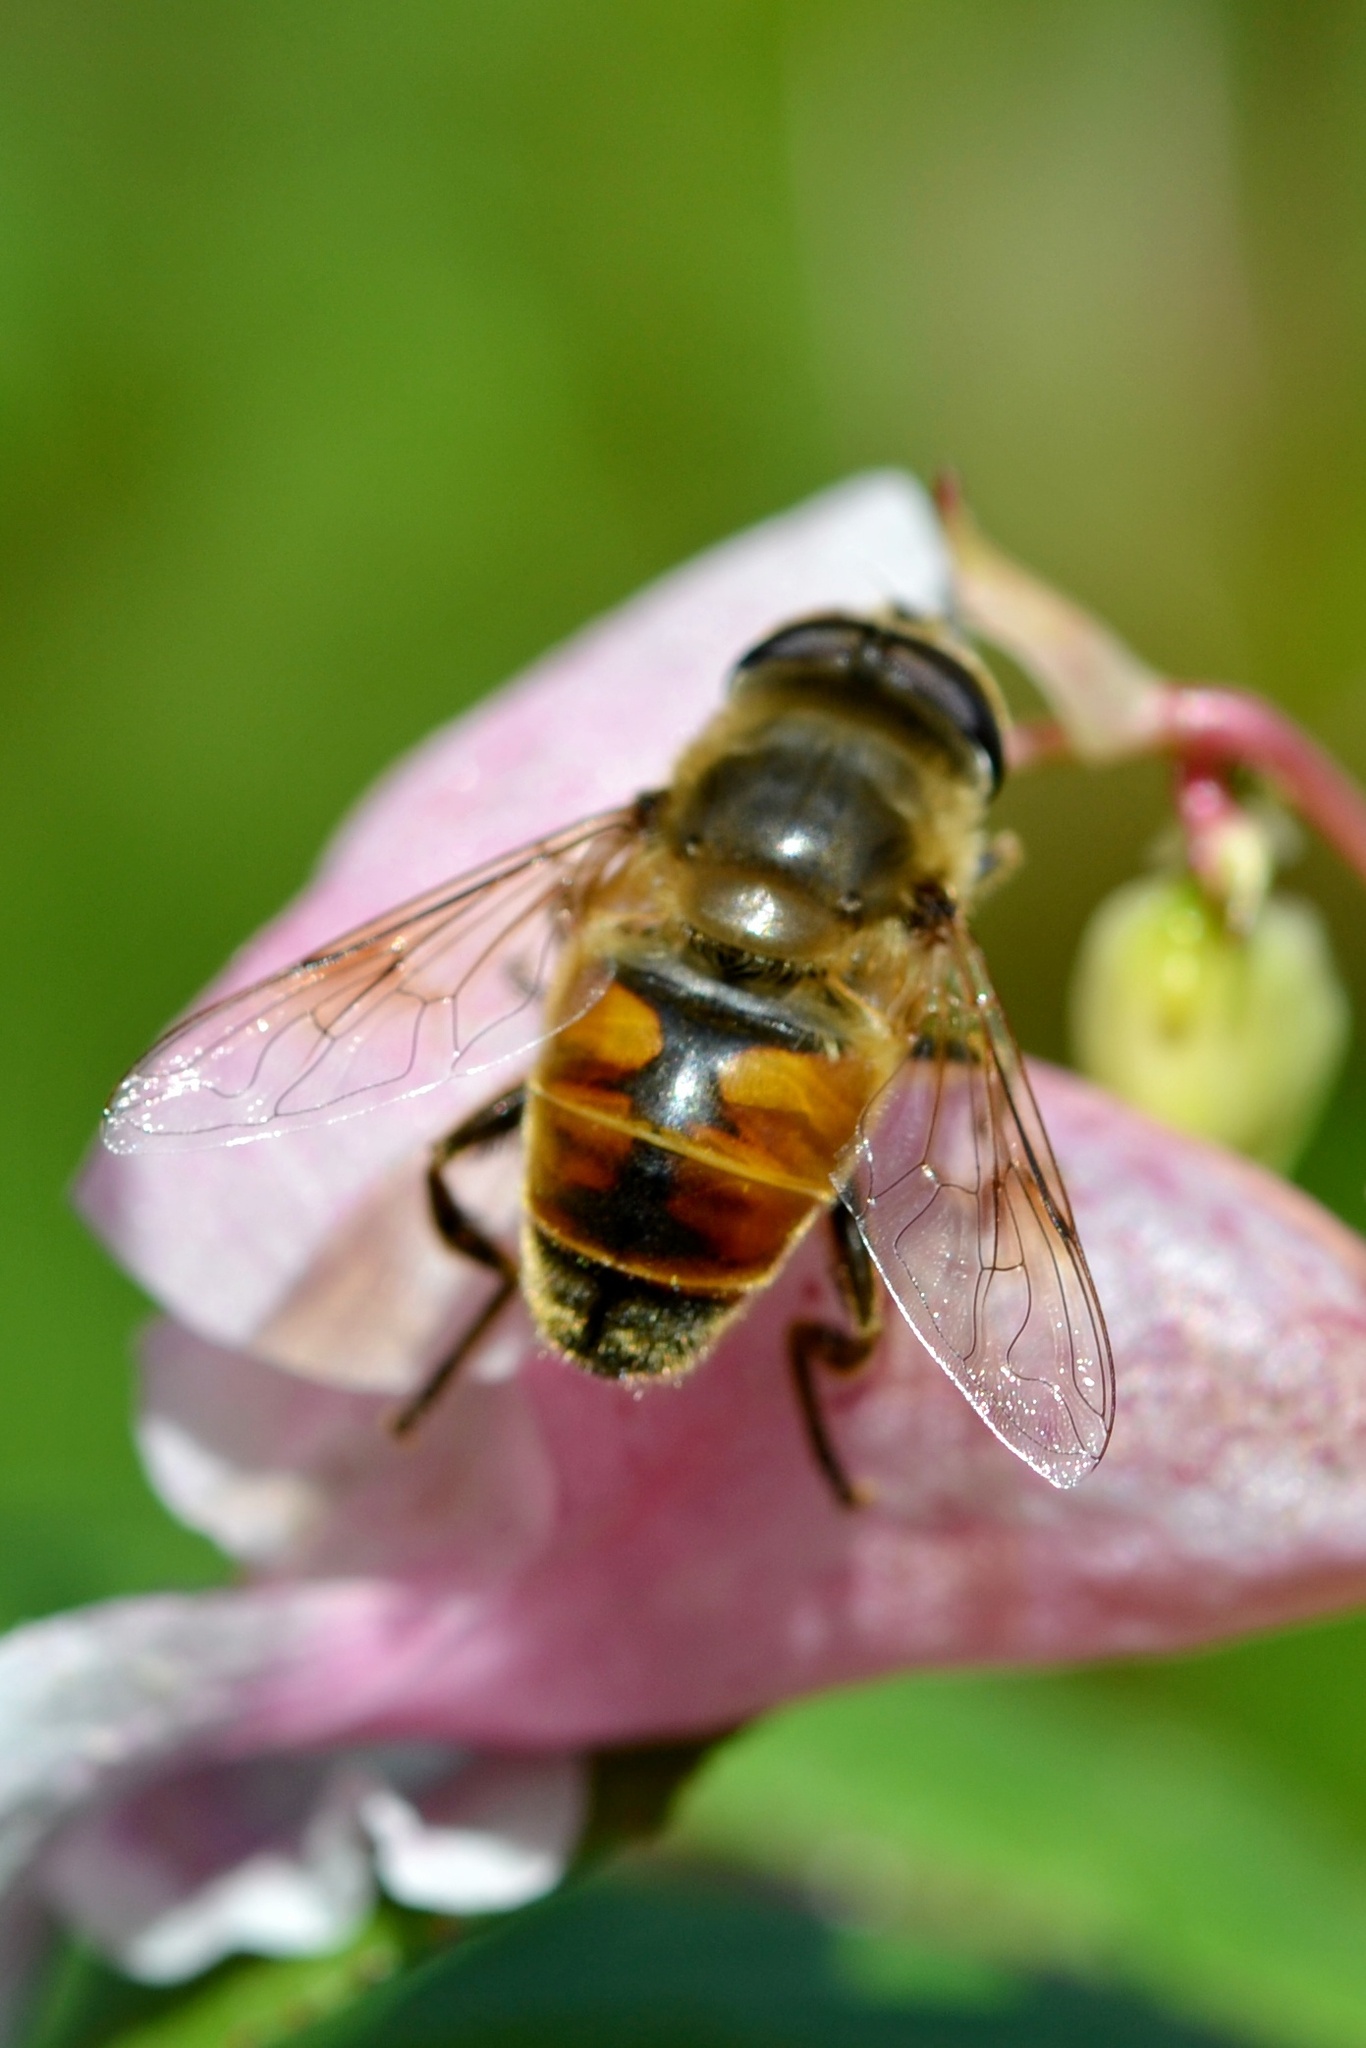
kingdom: Animalia
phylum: Arthropoda
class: Insecta
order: Diptera
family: Syrphidae
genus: Eristalis
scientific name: Eristalis tenax
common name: Drone fly
